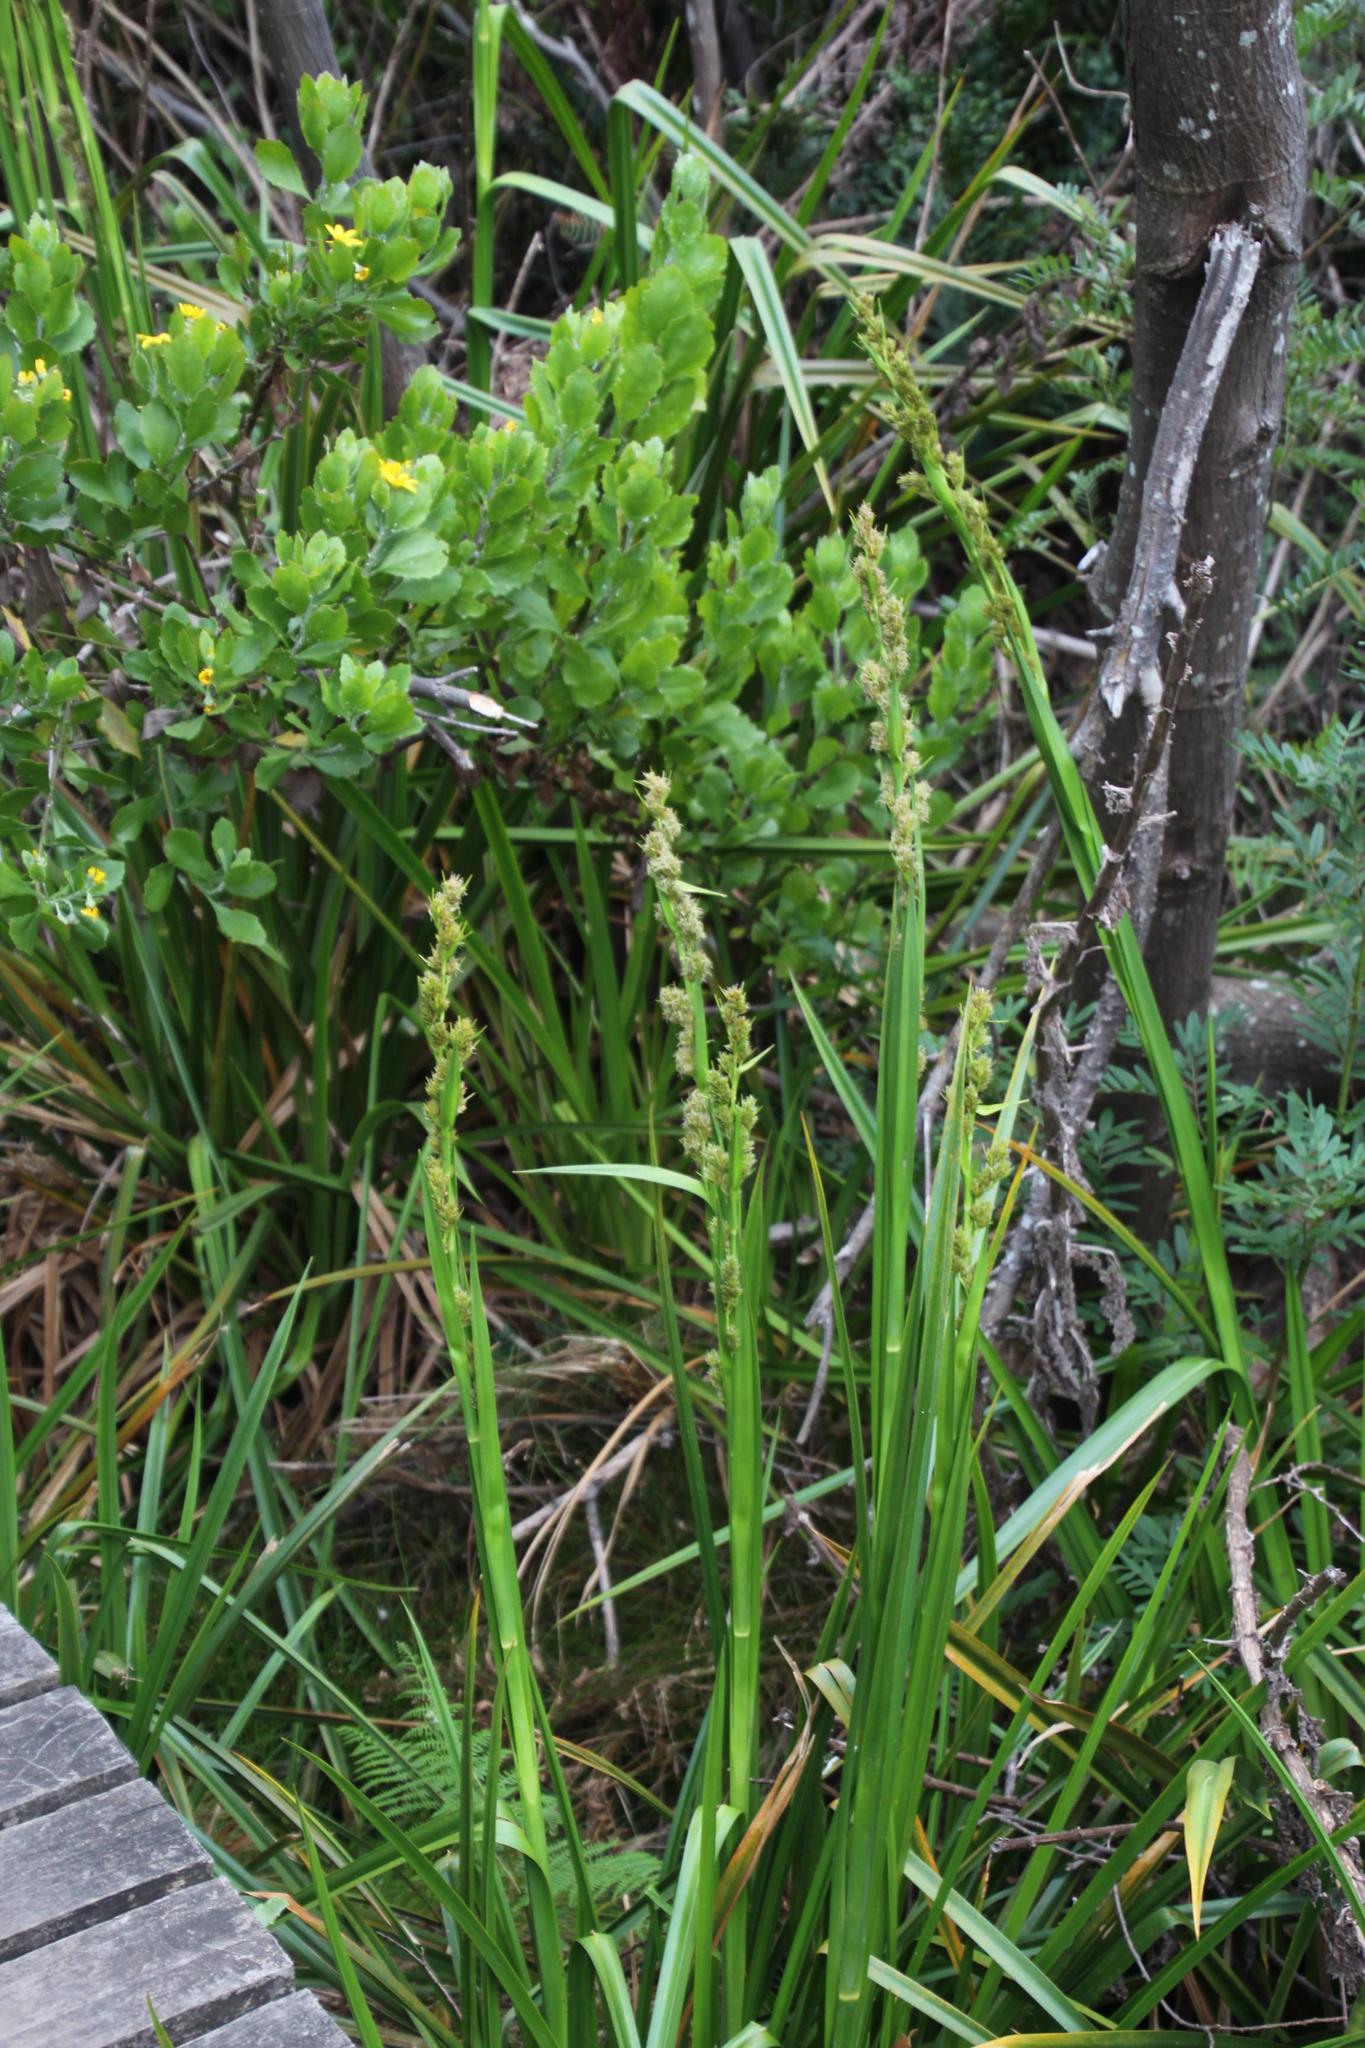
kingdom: Plantae
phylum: Tracheophyta
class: Liliopsida
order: Poales
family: Cyperaceae
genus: Carpha
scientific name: Carpha glomerata
